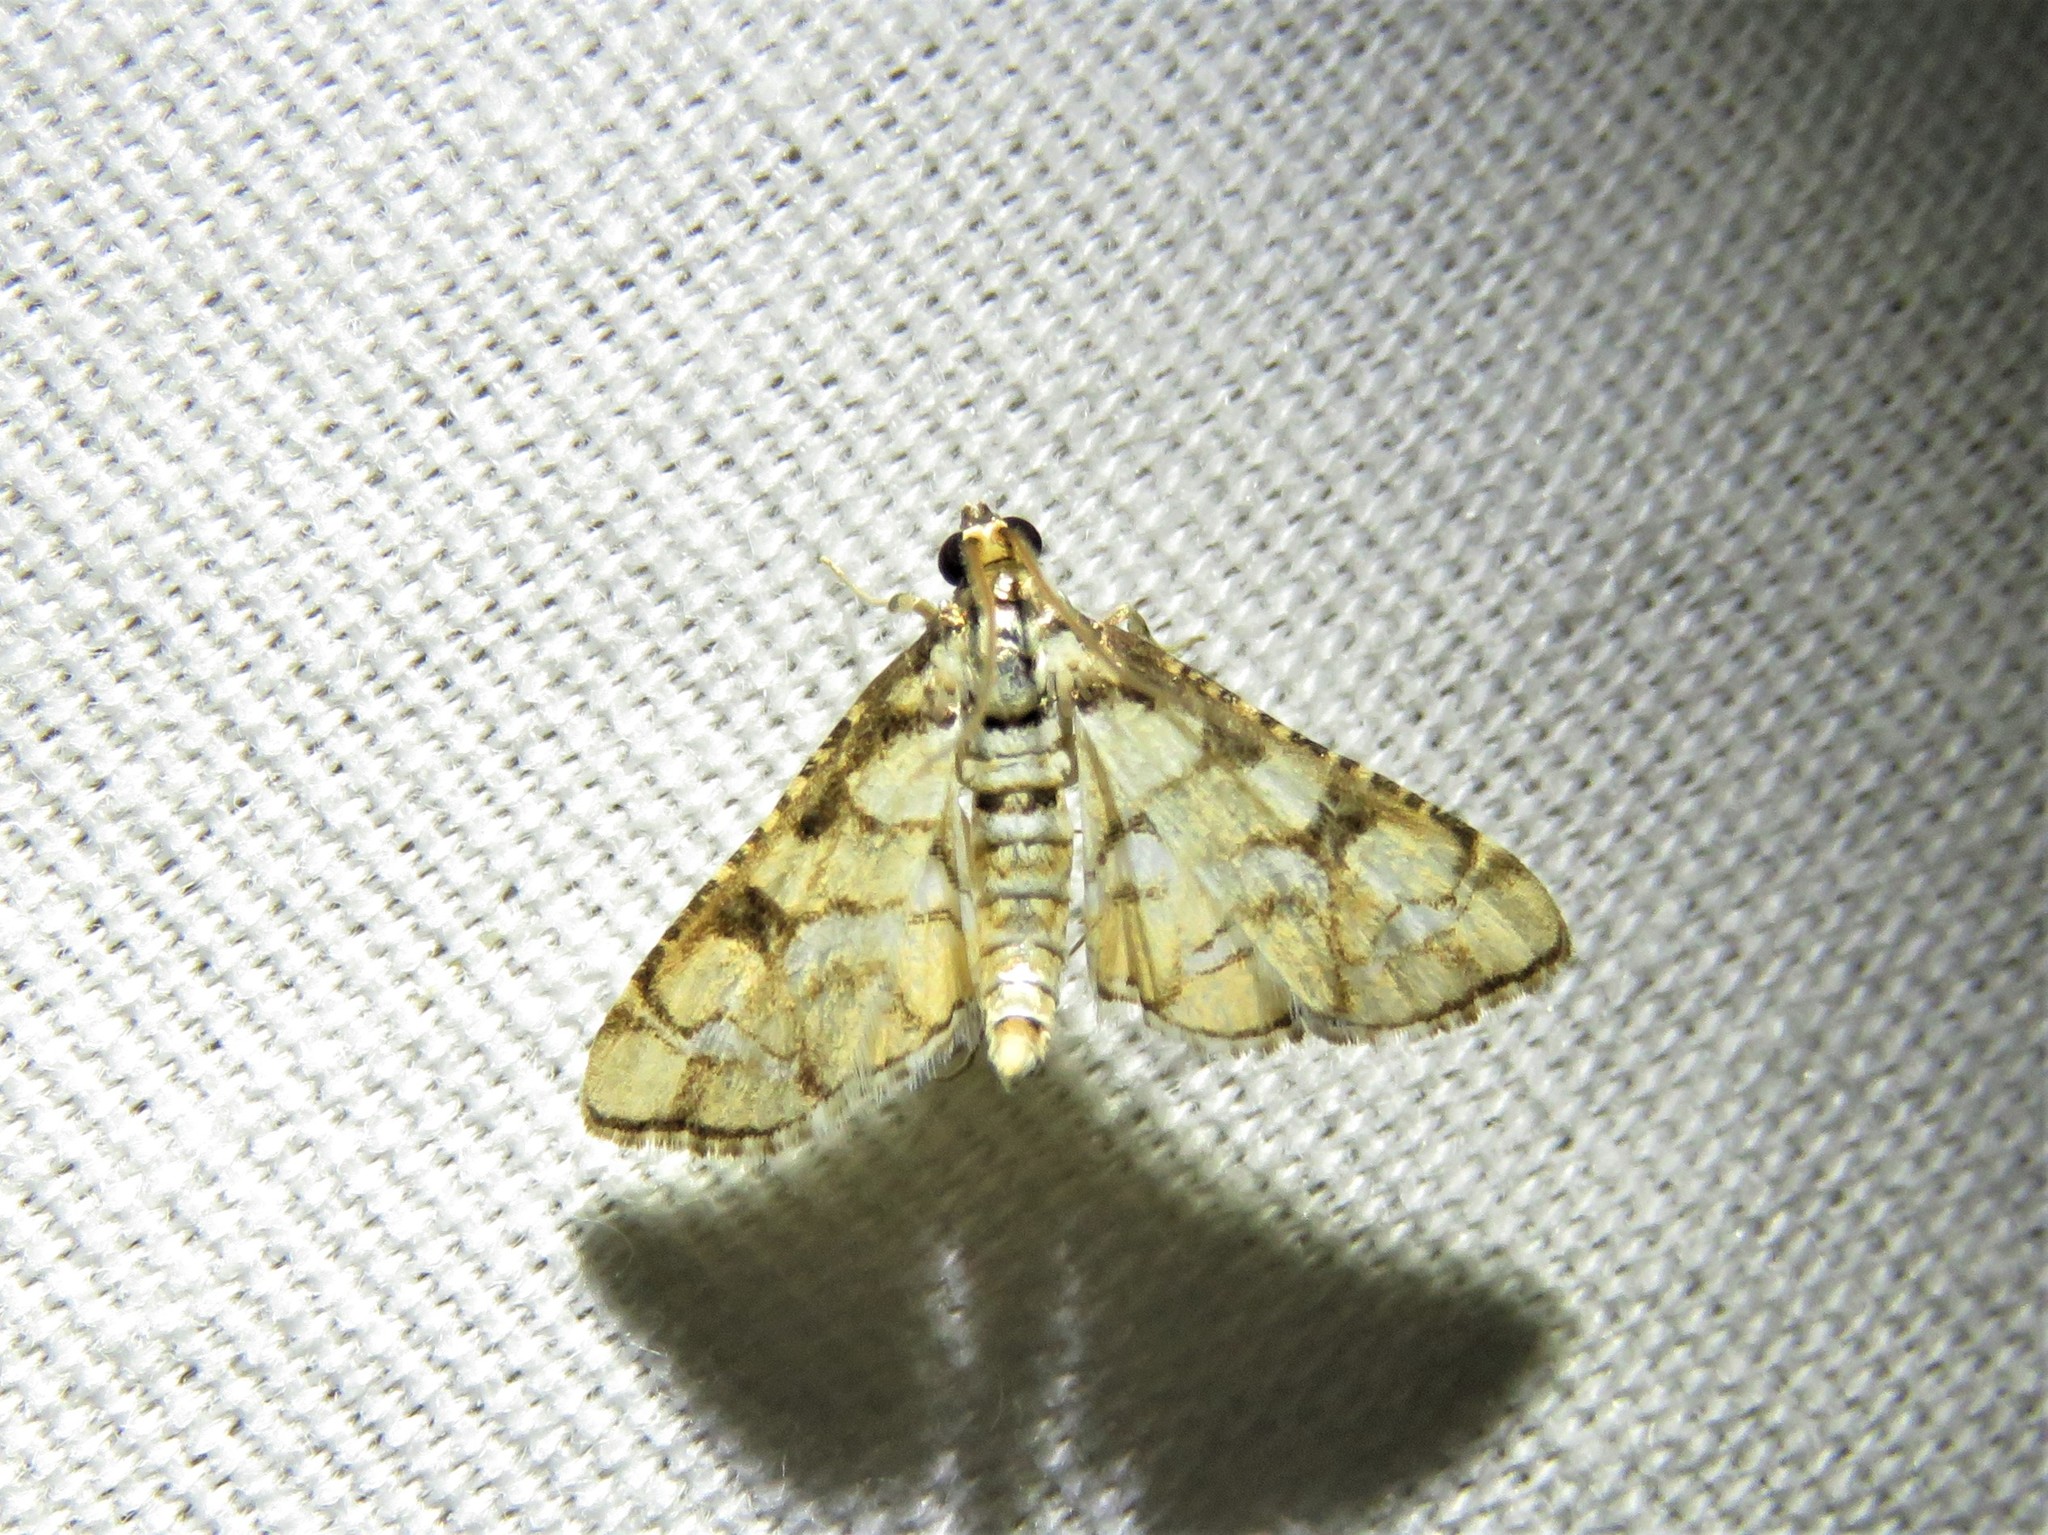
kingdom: Animalia
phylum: Arthropoda
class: Insecta
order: Lepidoptera
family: Crambidae
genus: Hileithia
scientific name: Hileithia magualis
